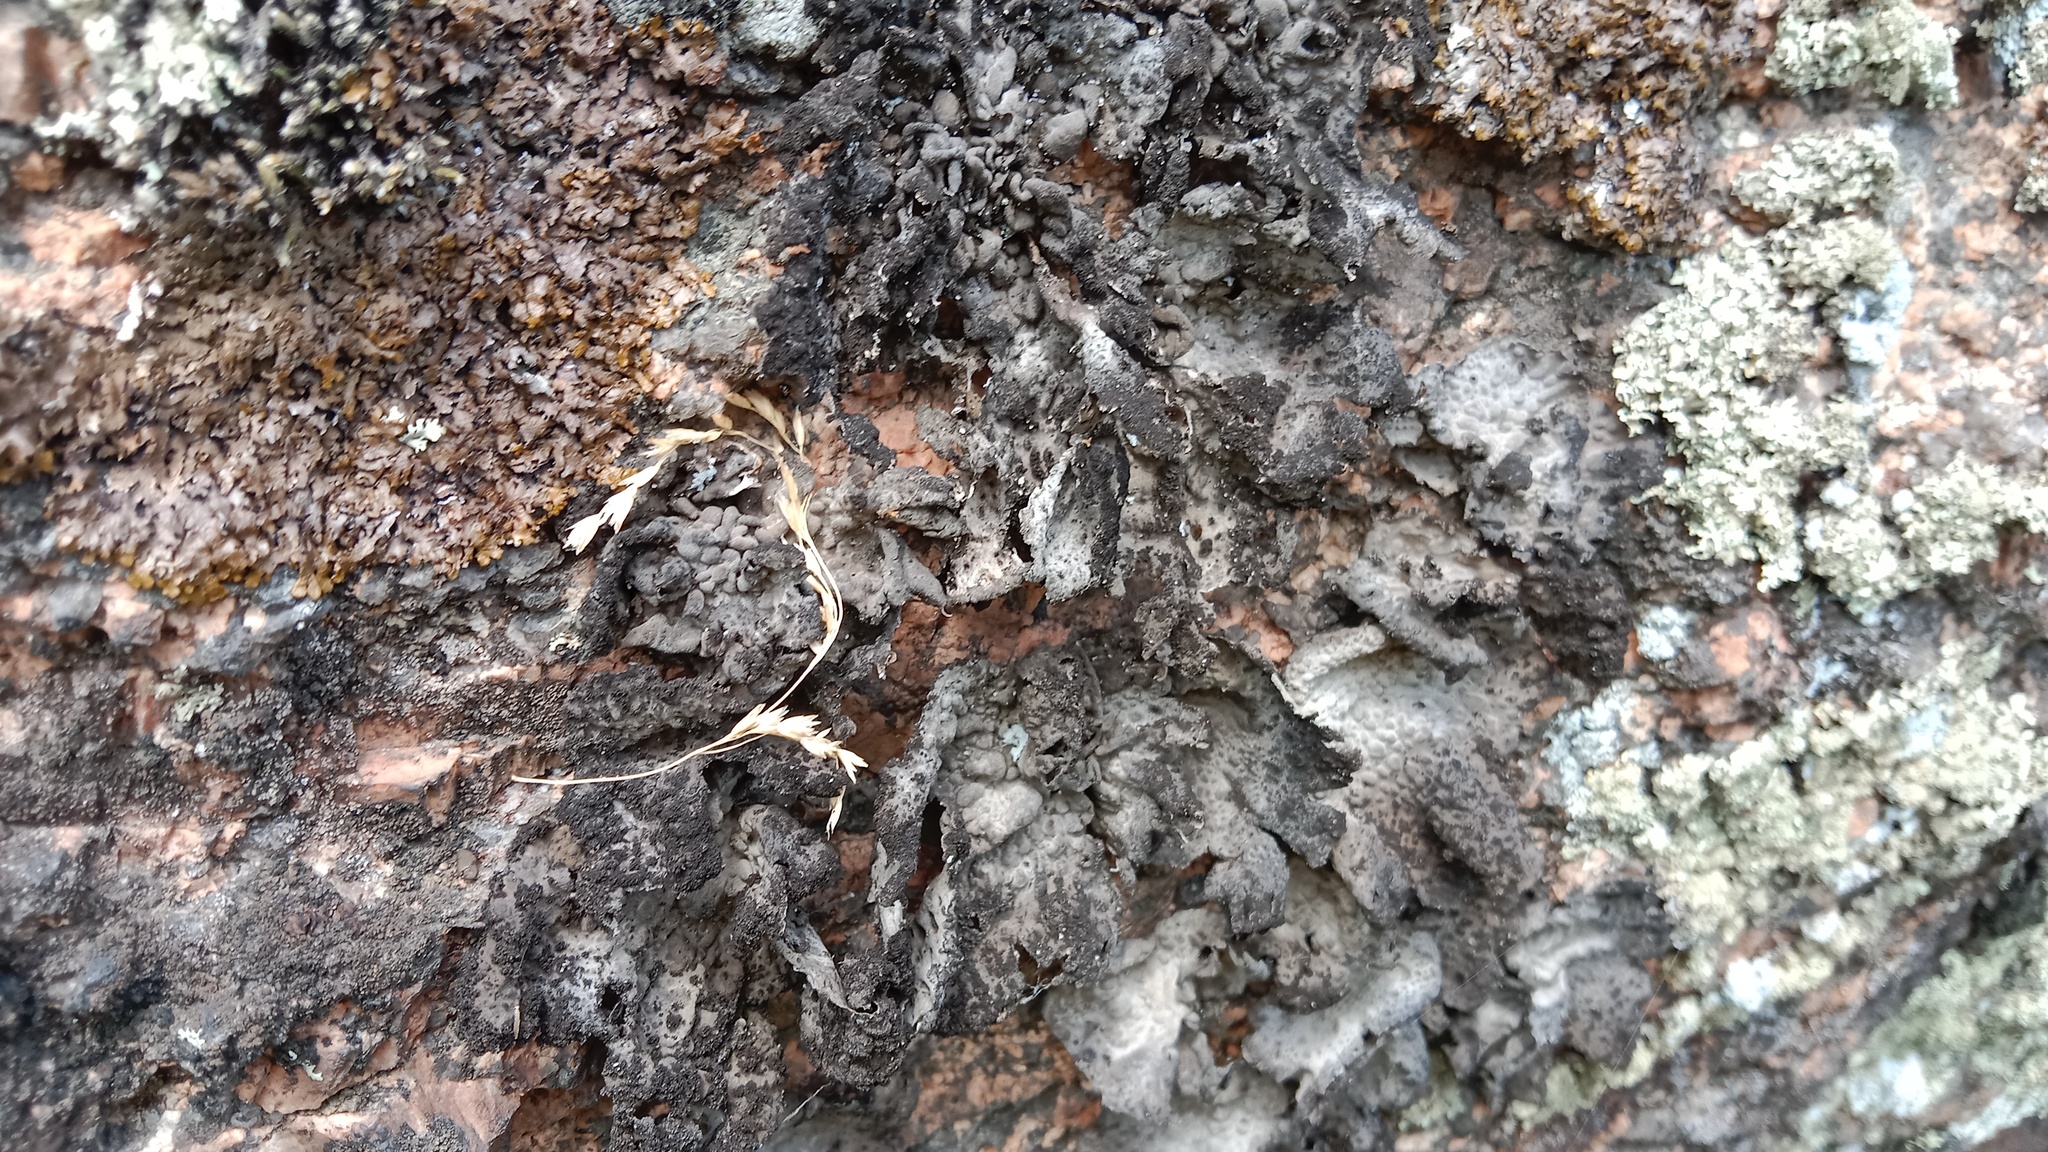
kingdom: Fungi
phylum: Ascomycota
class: Lecanoromycetes
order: Umbilicariales
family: Umbilicariaceae
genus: Lasallia
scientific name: Lasallia pustulata
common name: Blistered toadskin lichen
